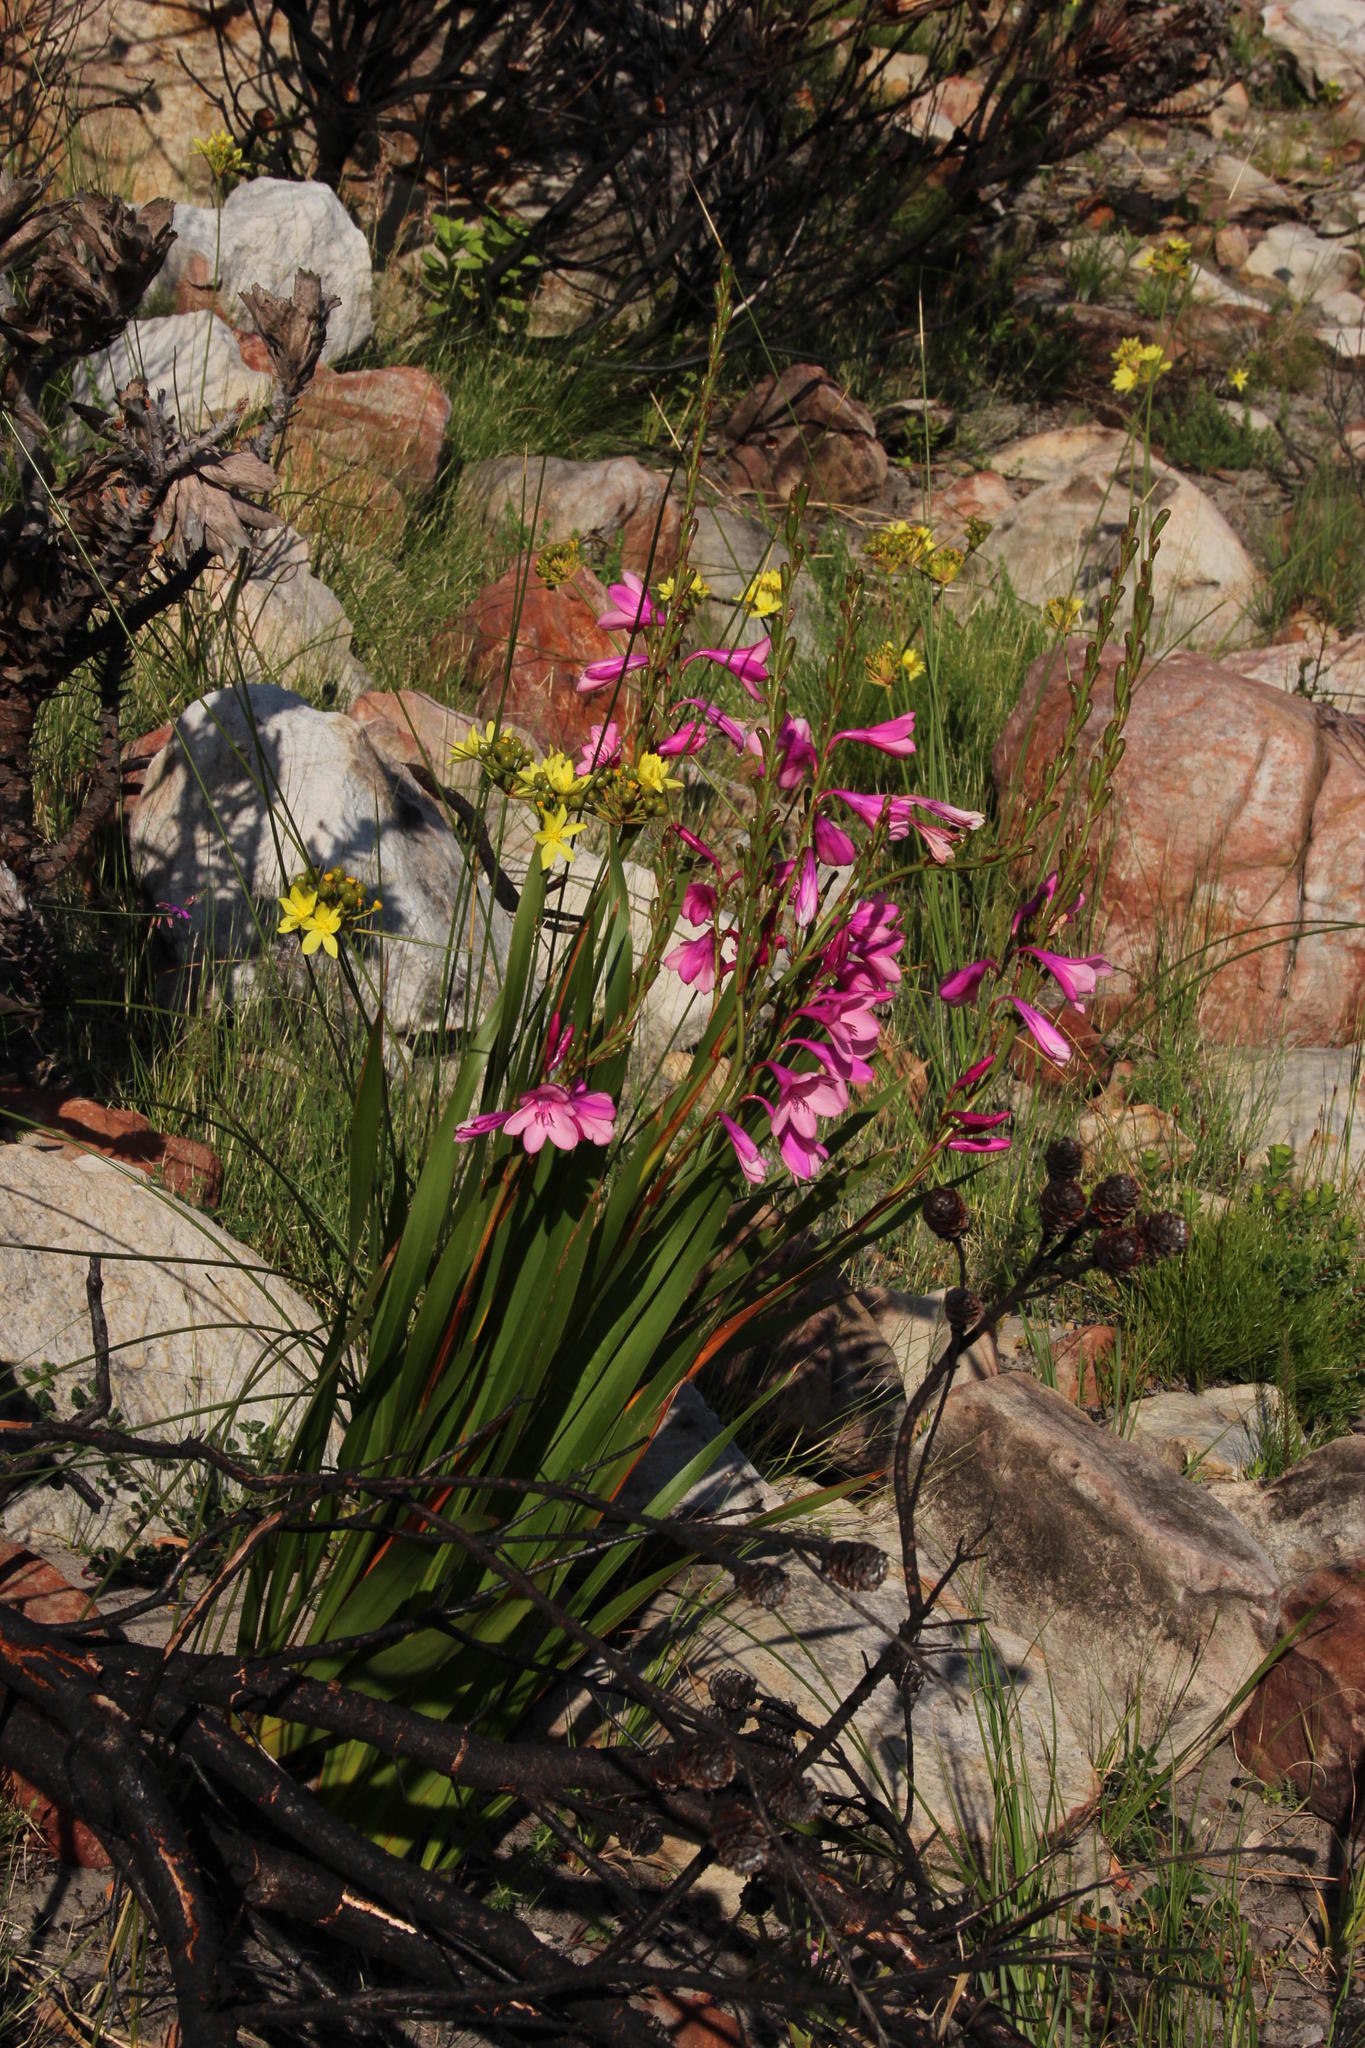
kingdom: Plantae
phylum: Tracheophyta
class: Liliopsida
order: Asparagales
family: Iridaceae
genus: Watsonia
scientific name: Watsonia borbonica
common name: Bugle-lily
